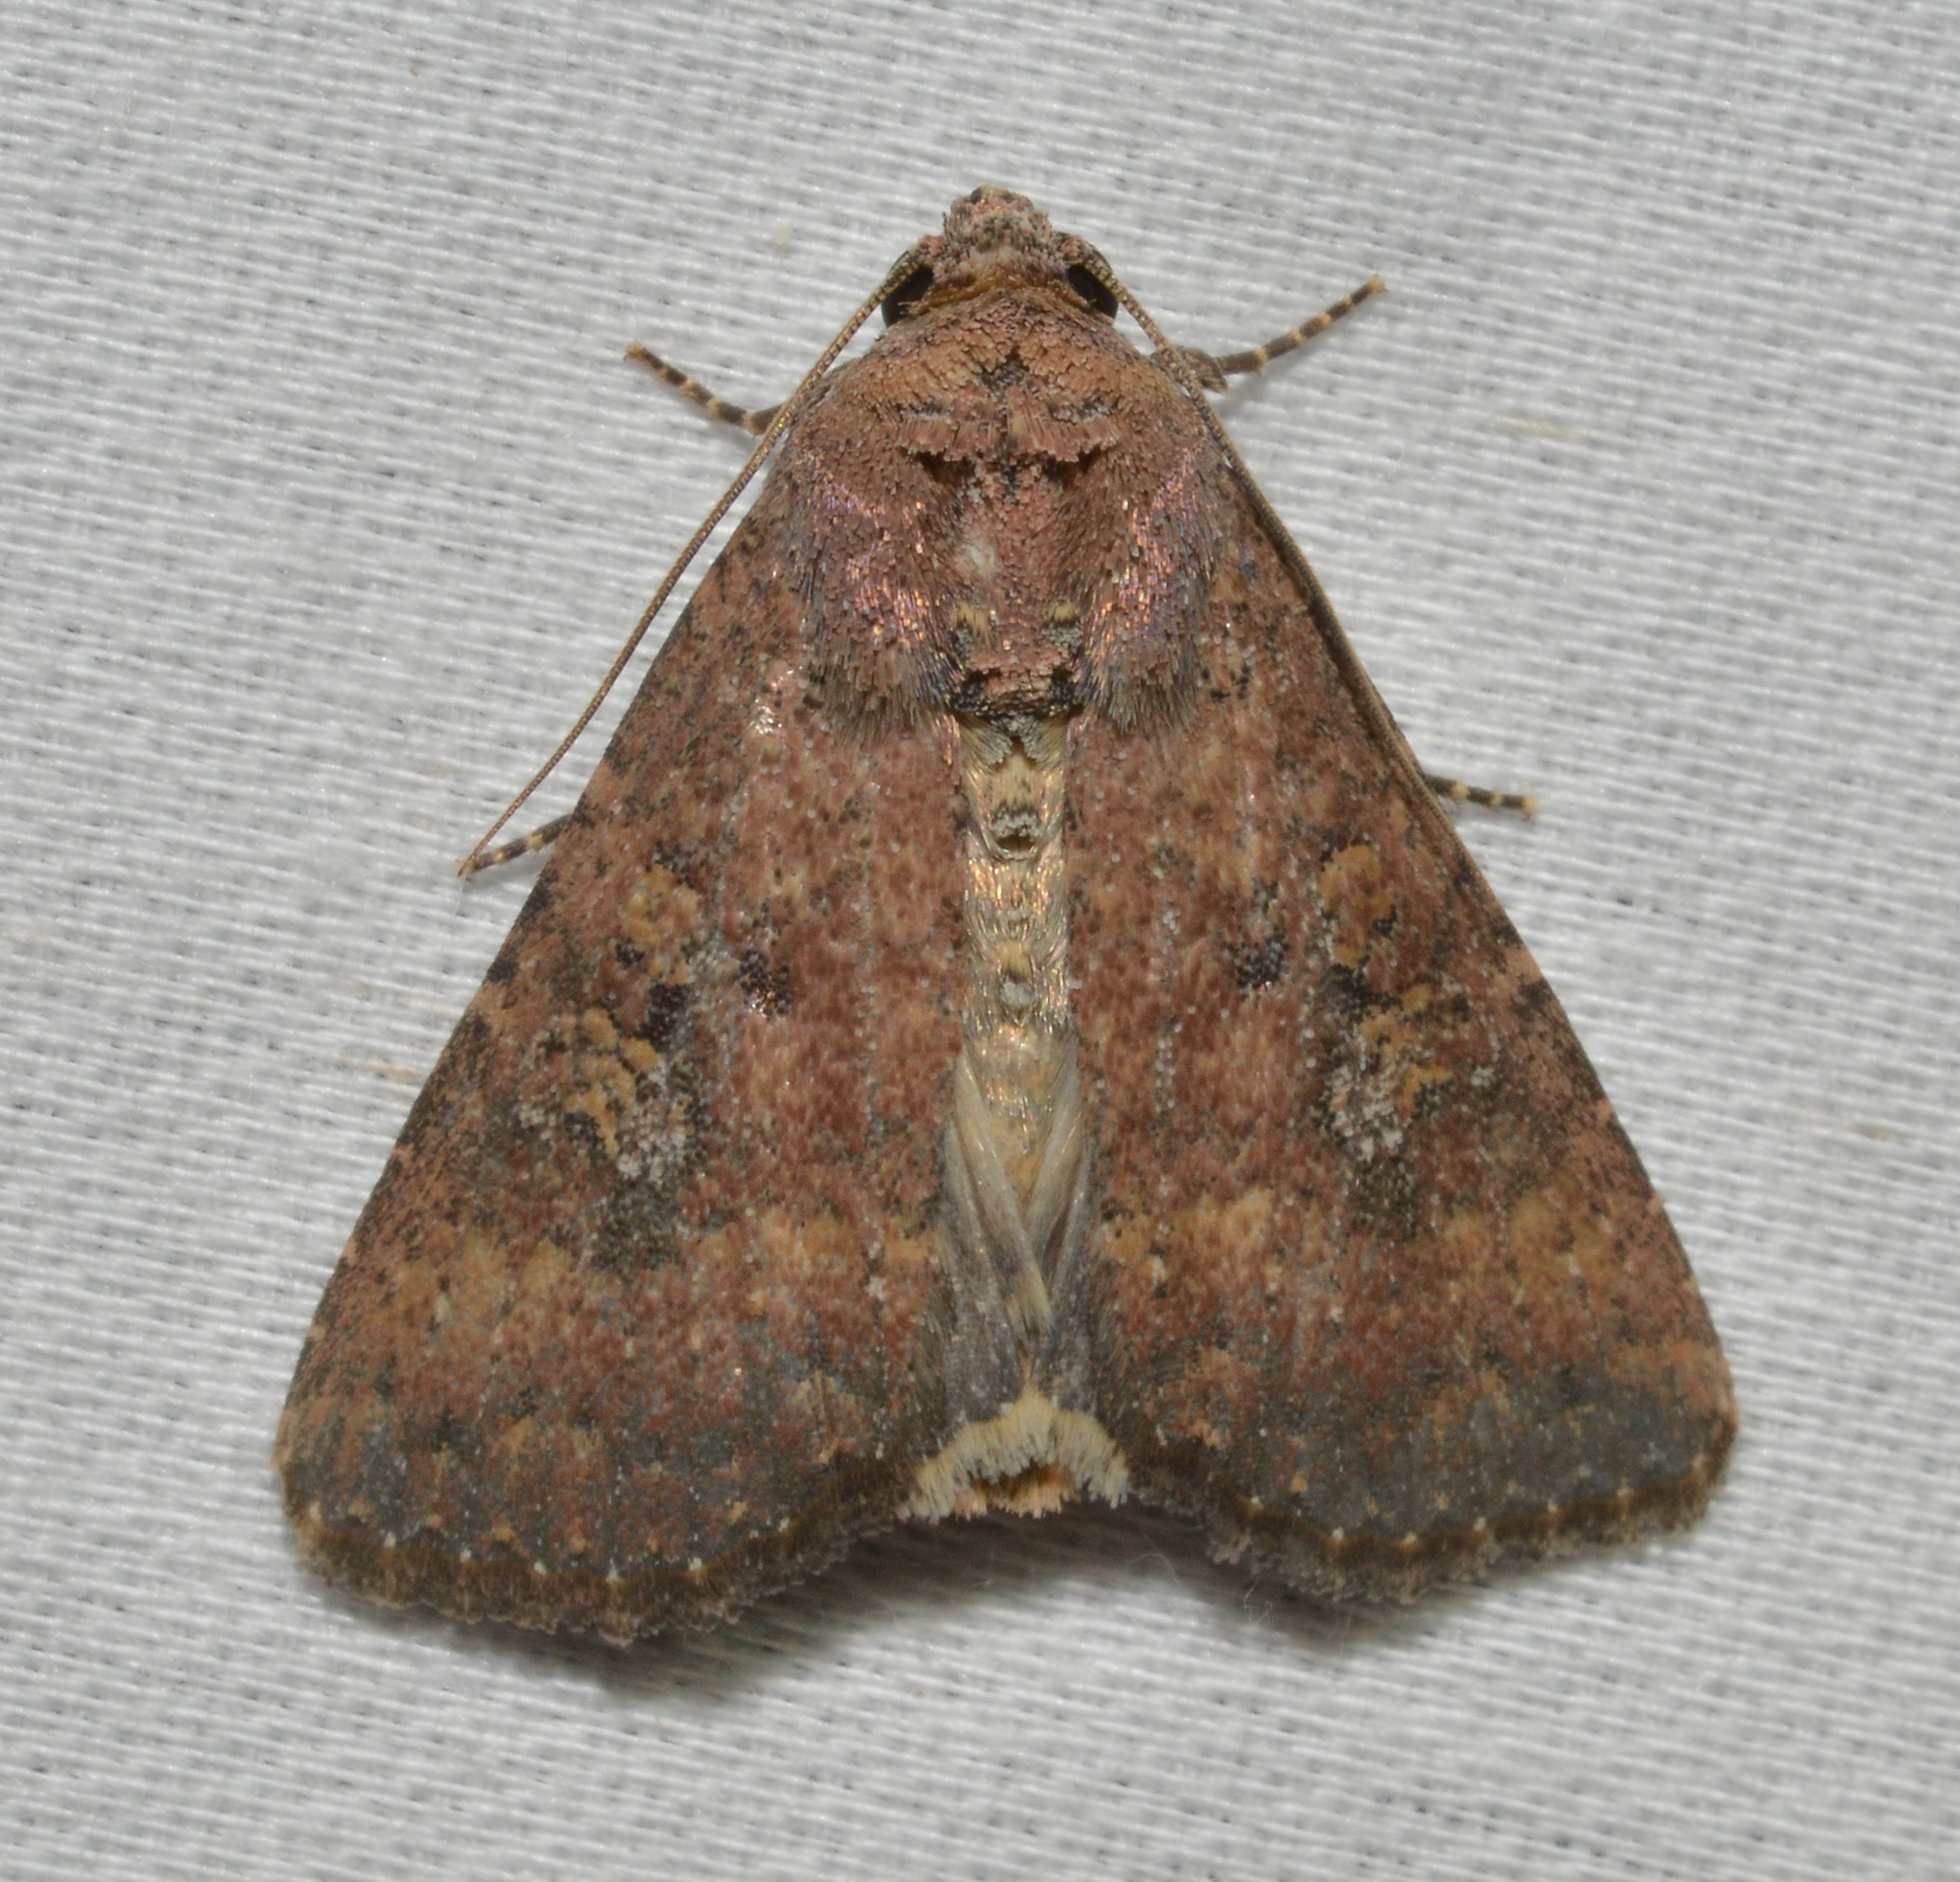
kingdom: Animalia
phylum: Arthropoda
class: Insecta
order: Lepidoptera
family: Noctuidae
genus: Condica
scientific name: Condica sutor
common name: Cobbler moth
